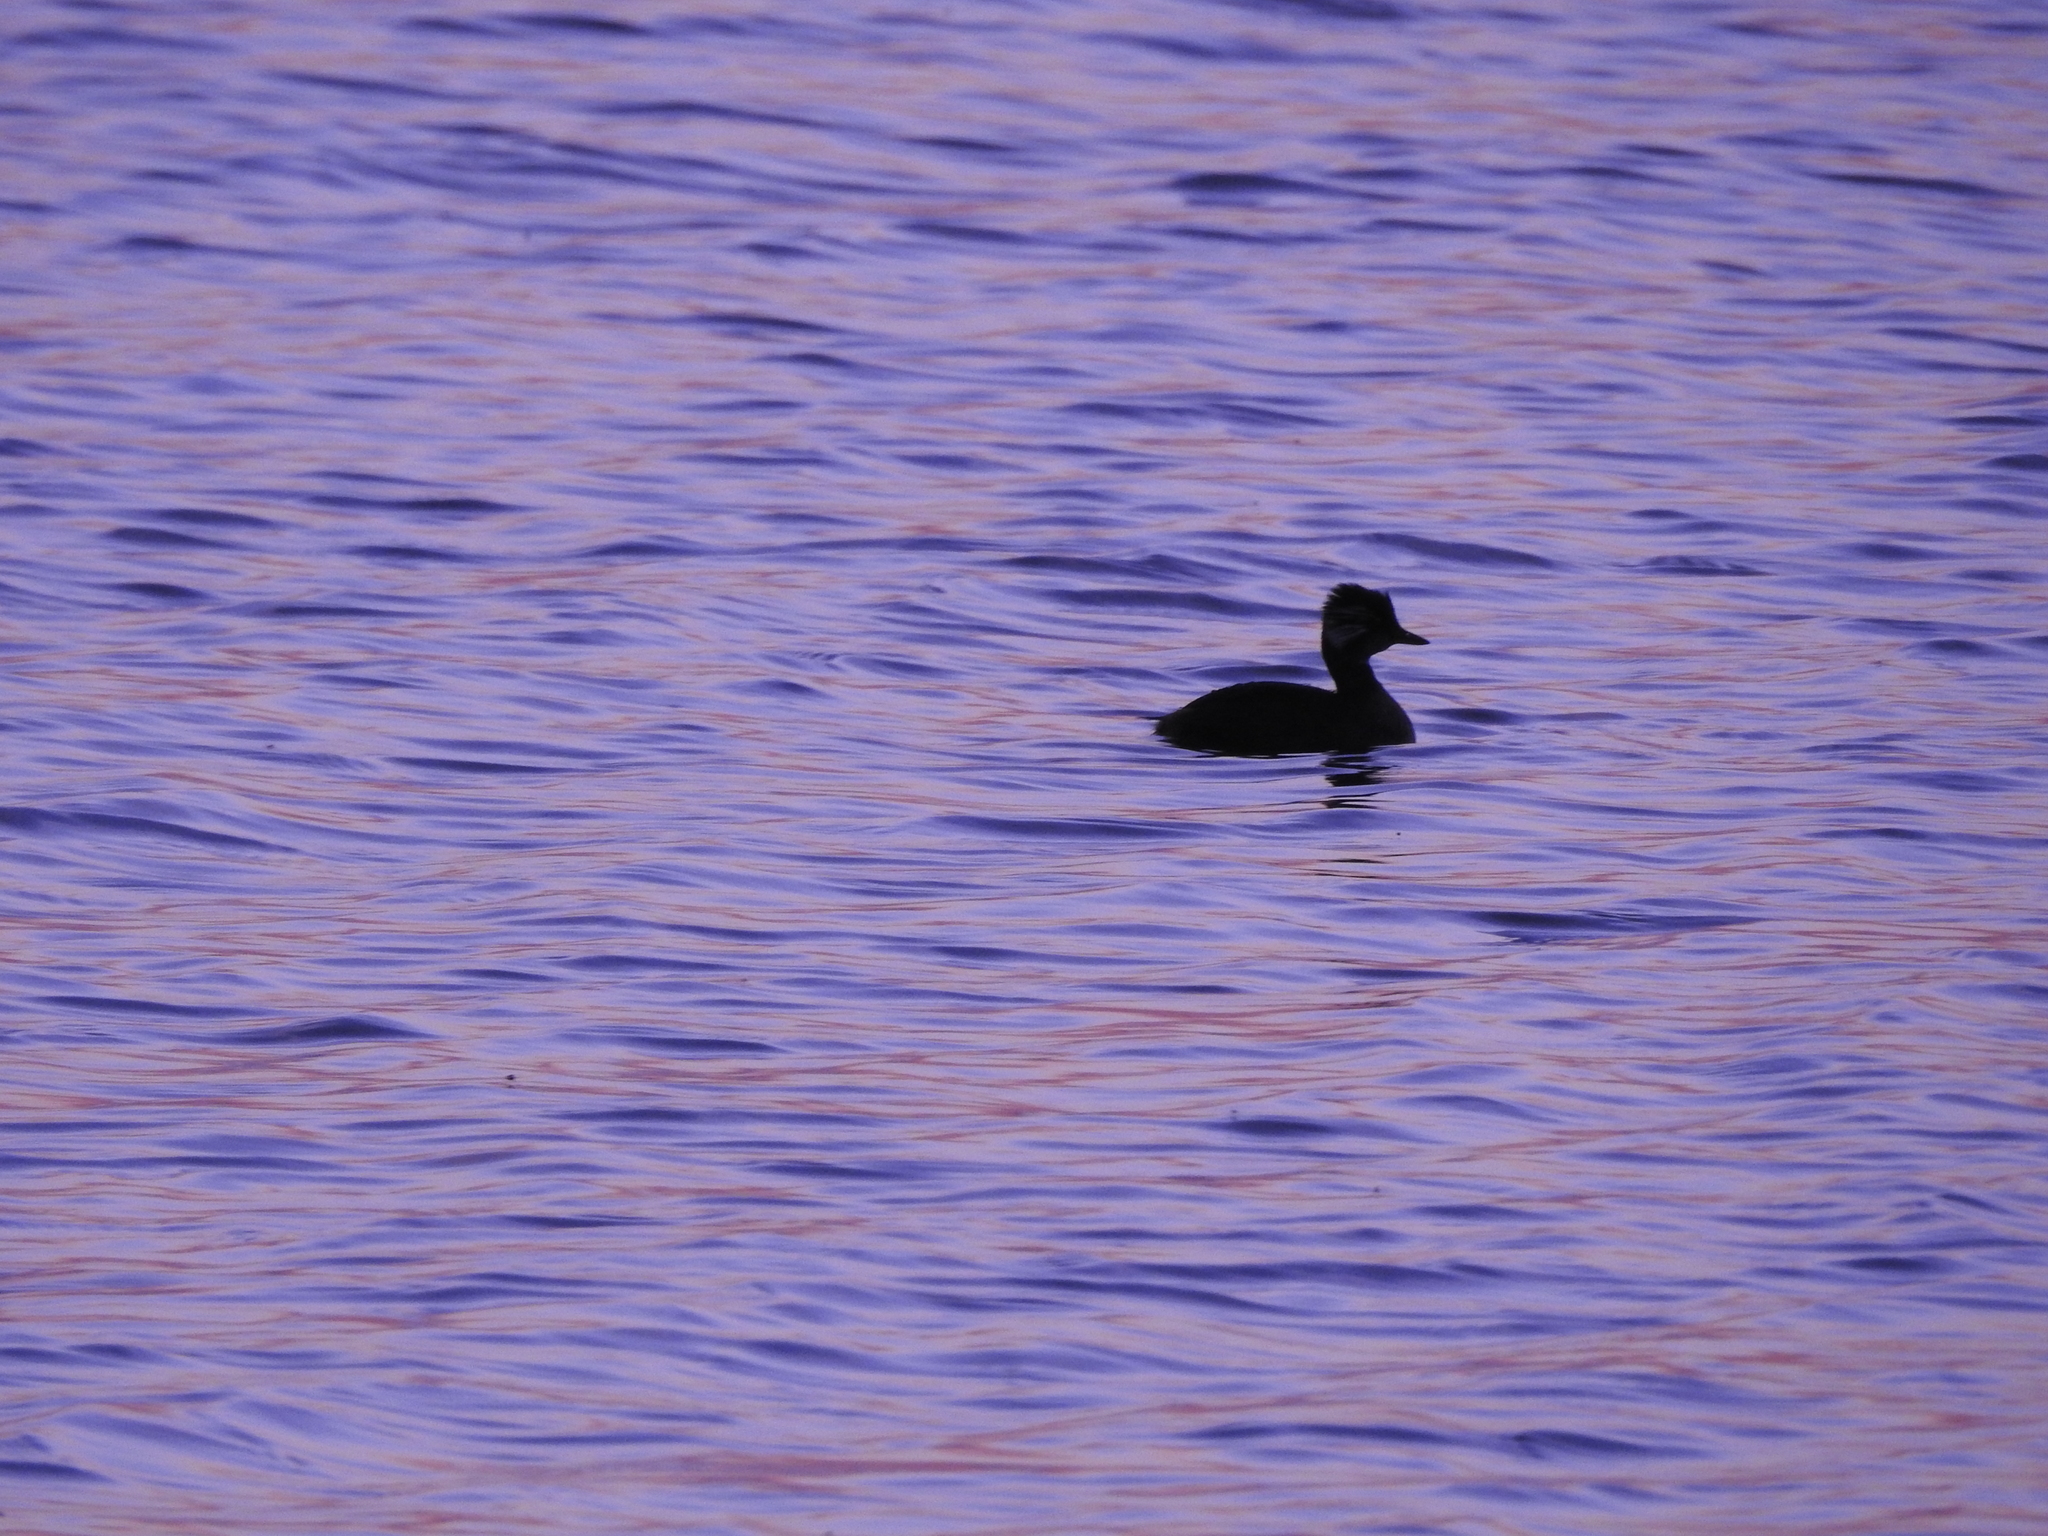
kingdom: Animalia
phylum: Chordata
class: Aves
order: Podicipediformes
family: Podicipedidae
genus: Rollandia
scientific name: Rollandia rolland
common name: White-tufted grebe
